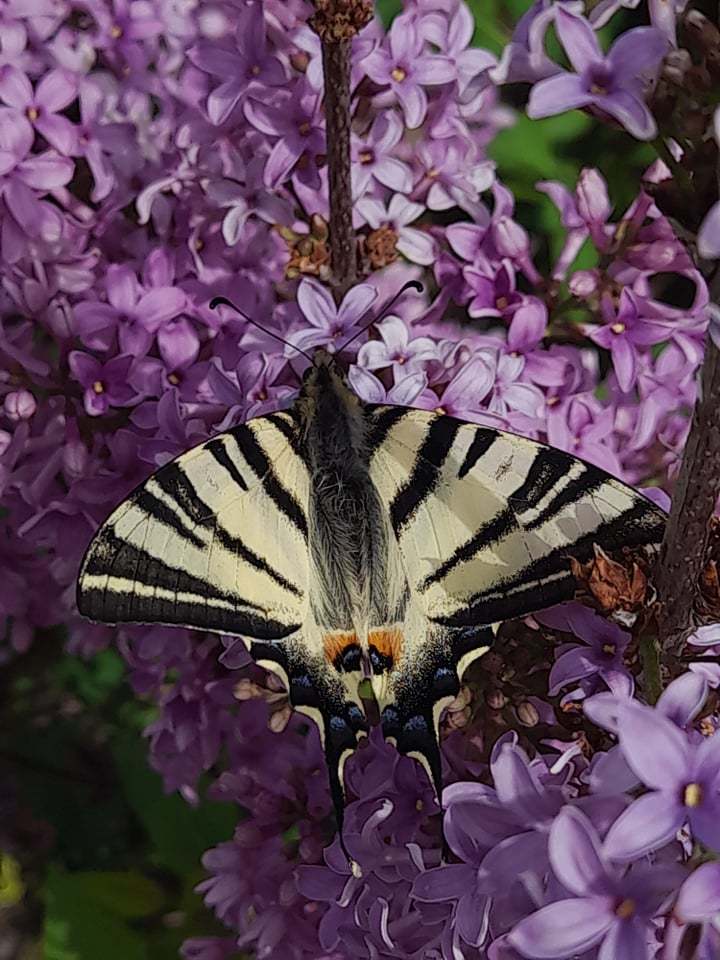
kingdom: Animalia
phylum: Arthropoda
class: Insecta
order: Lepidoptera
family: Papilionidae
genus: Iphiclides
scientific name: Iphiclides podalirius
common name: Scarce swallowtail
